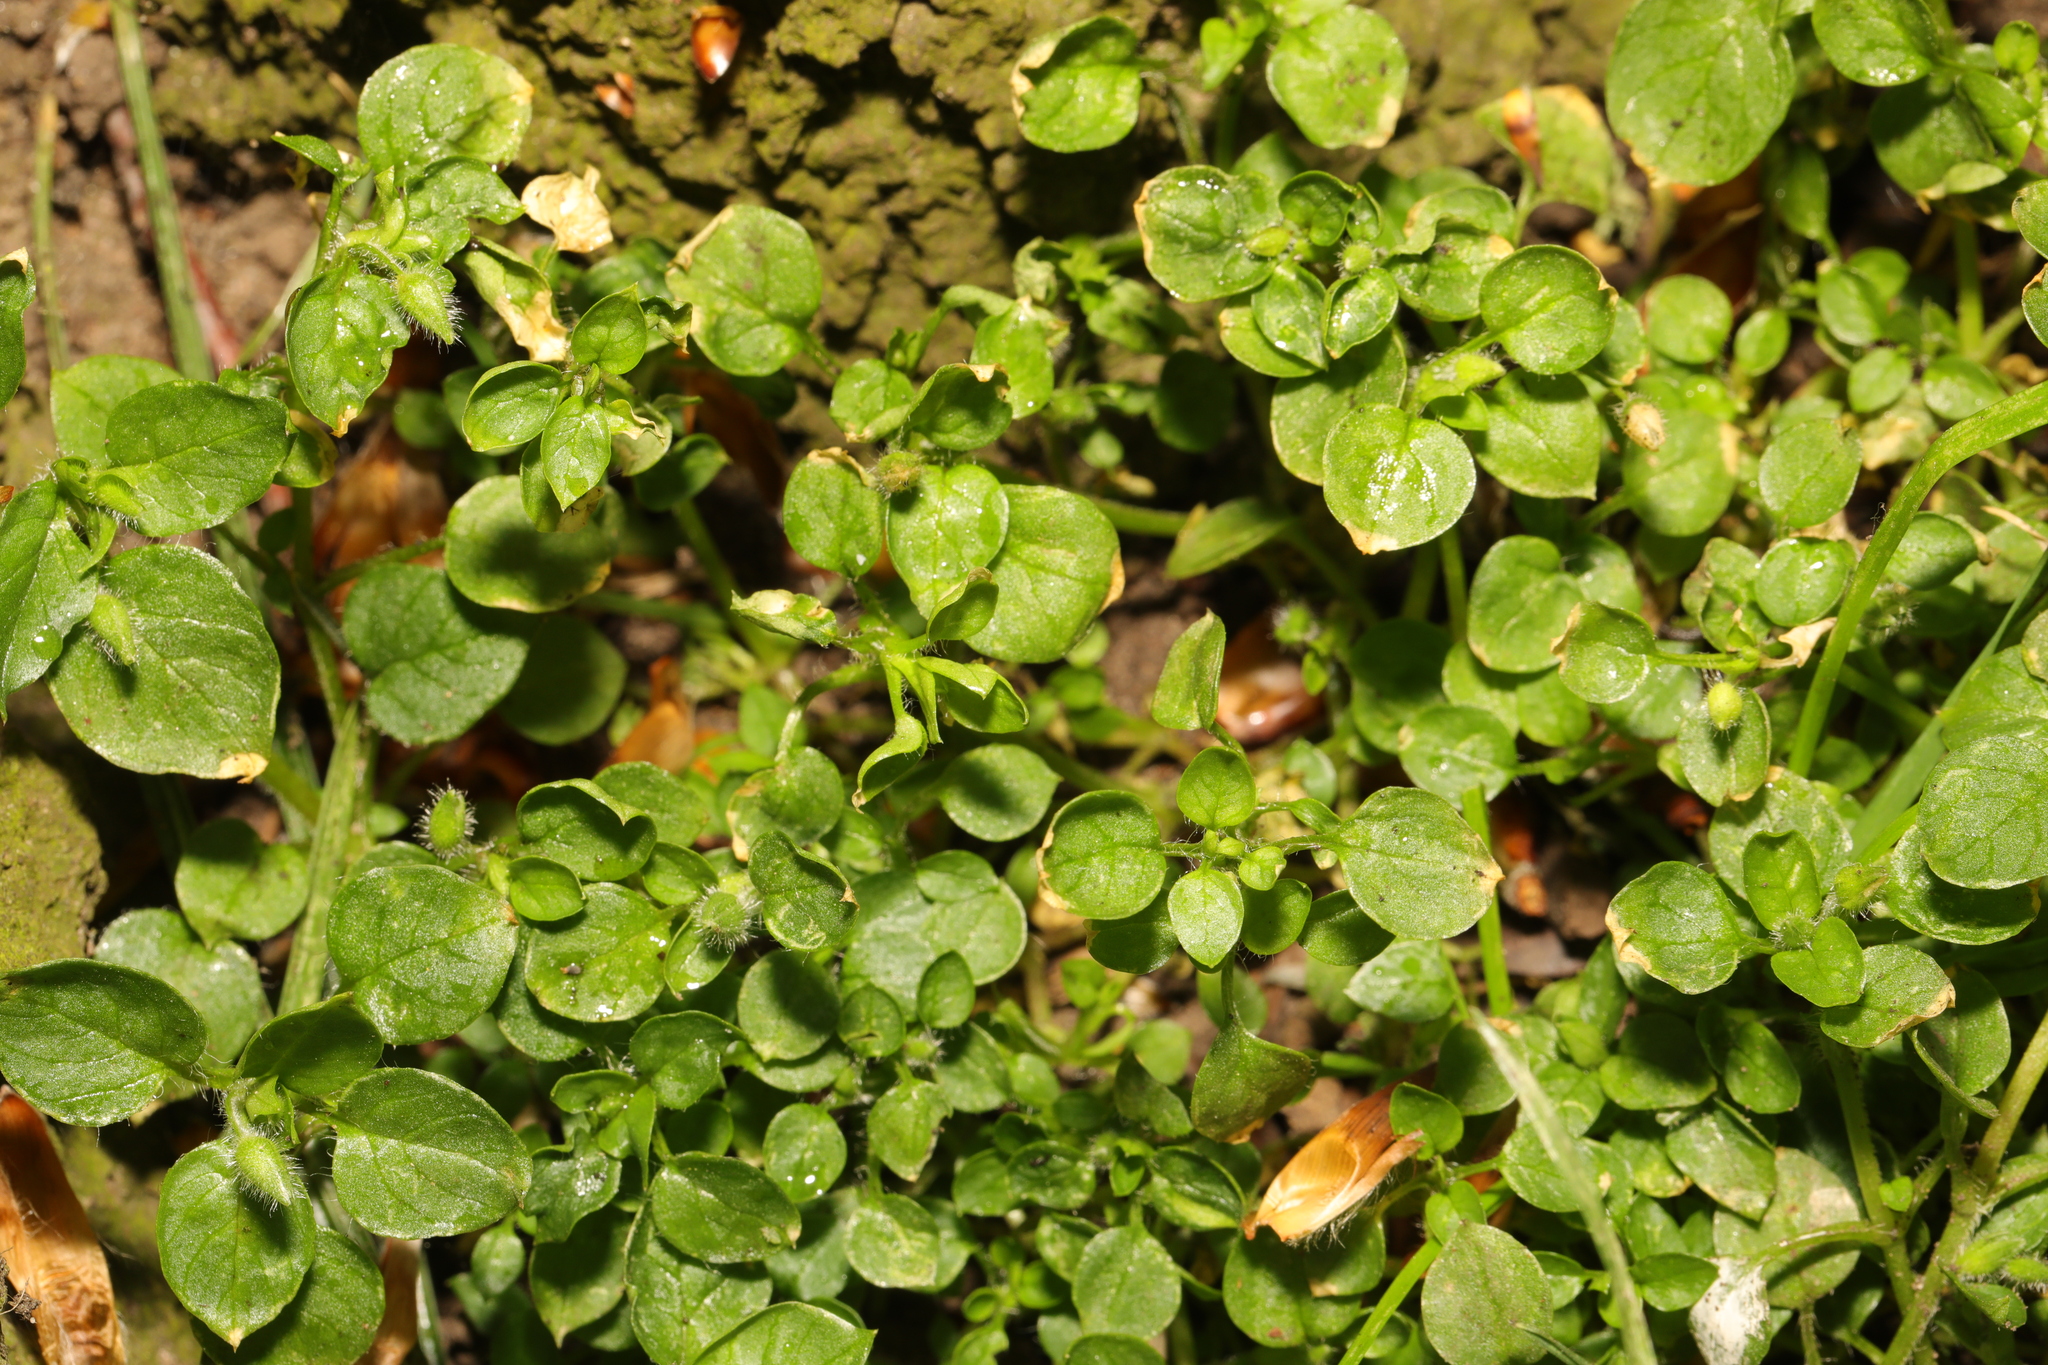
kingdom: Plantae
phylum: Tracheophyta
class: Magnoliopsida
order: Caryophyllales
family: Caryophyllaceae
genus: Stellaria
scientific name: Stellaria media
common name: Common chickweed
